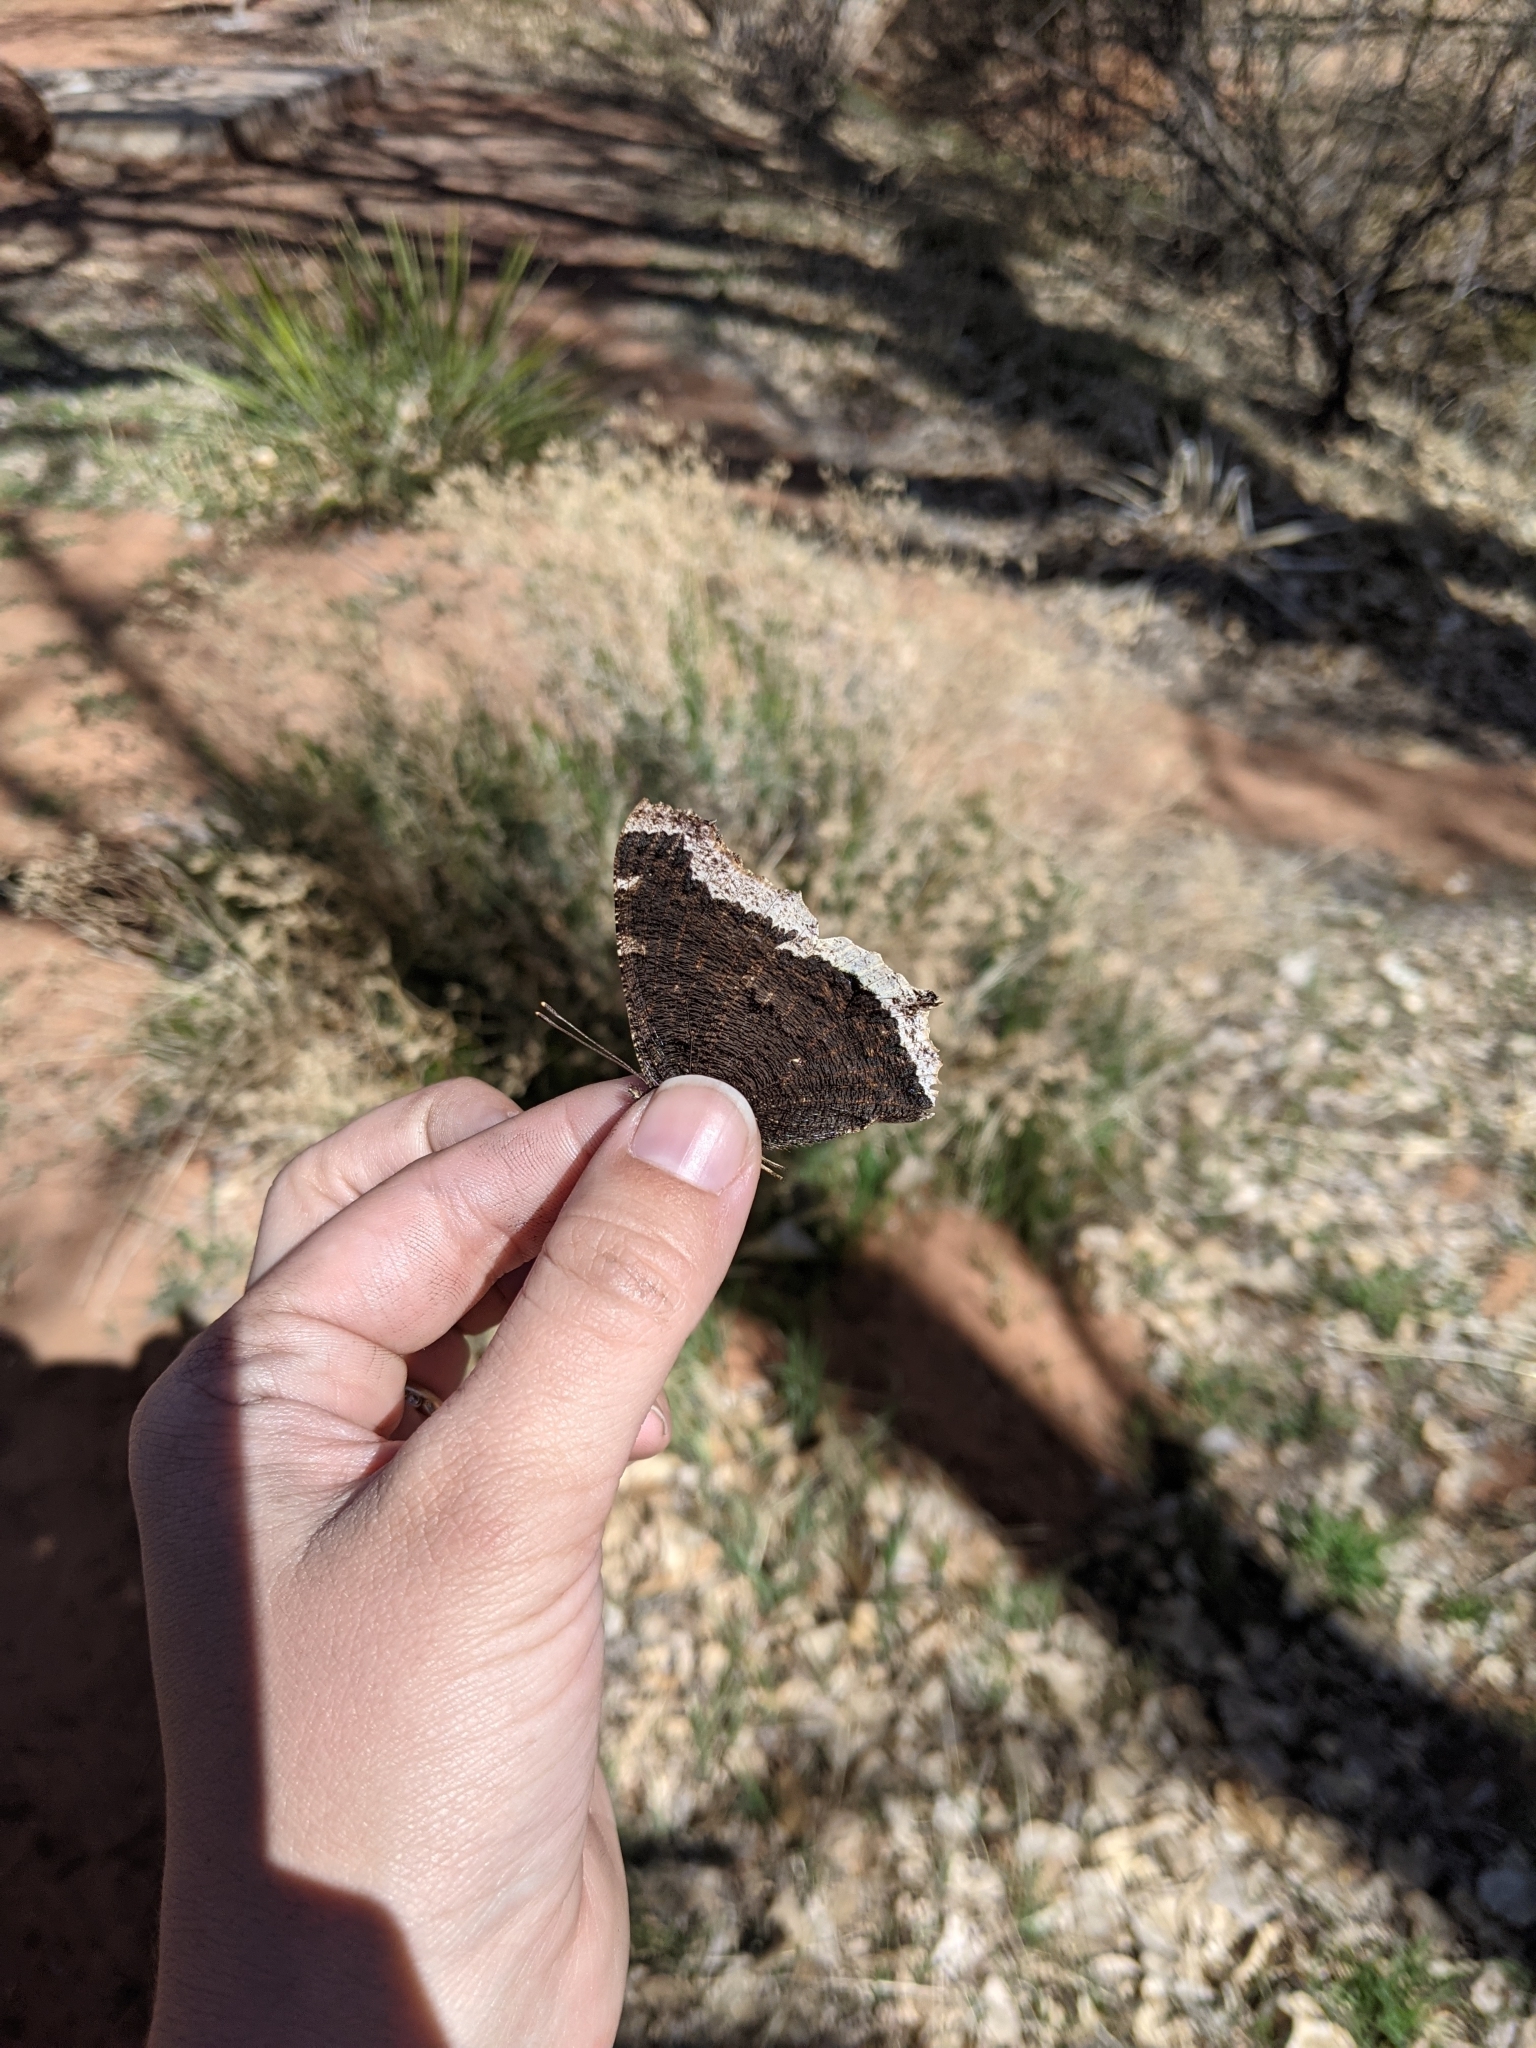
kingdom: Animalia
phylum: Arthropoda
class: Insecta
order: Lepidoptera
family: Nymphalidae
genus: Nymphalis
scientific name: Nymphalis antiopa
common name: Camberwell beauty
